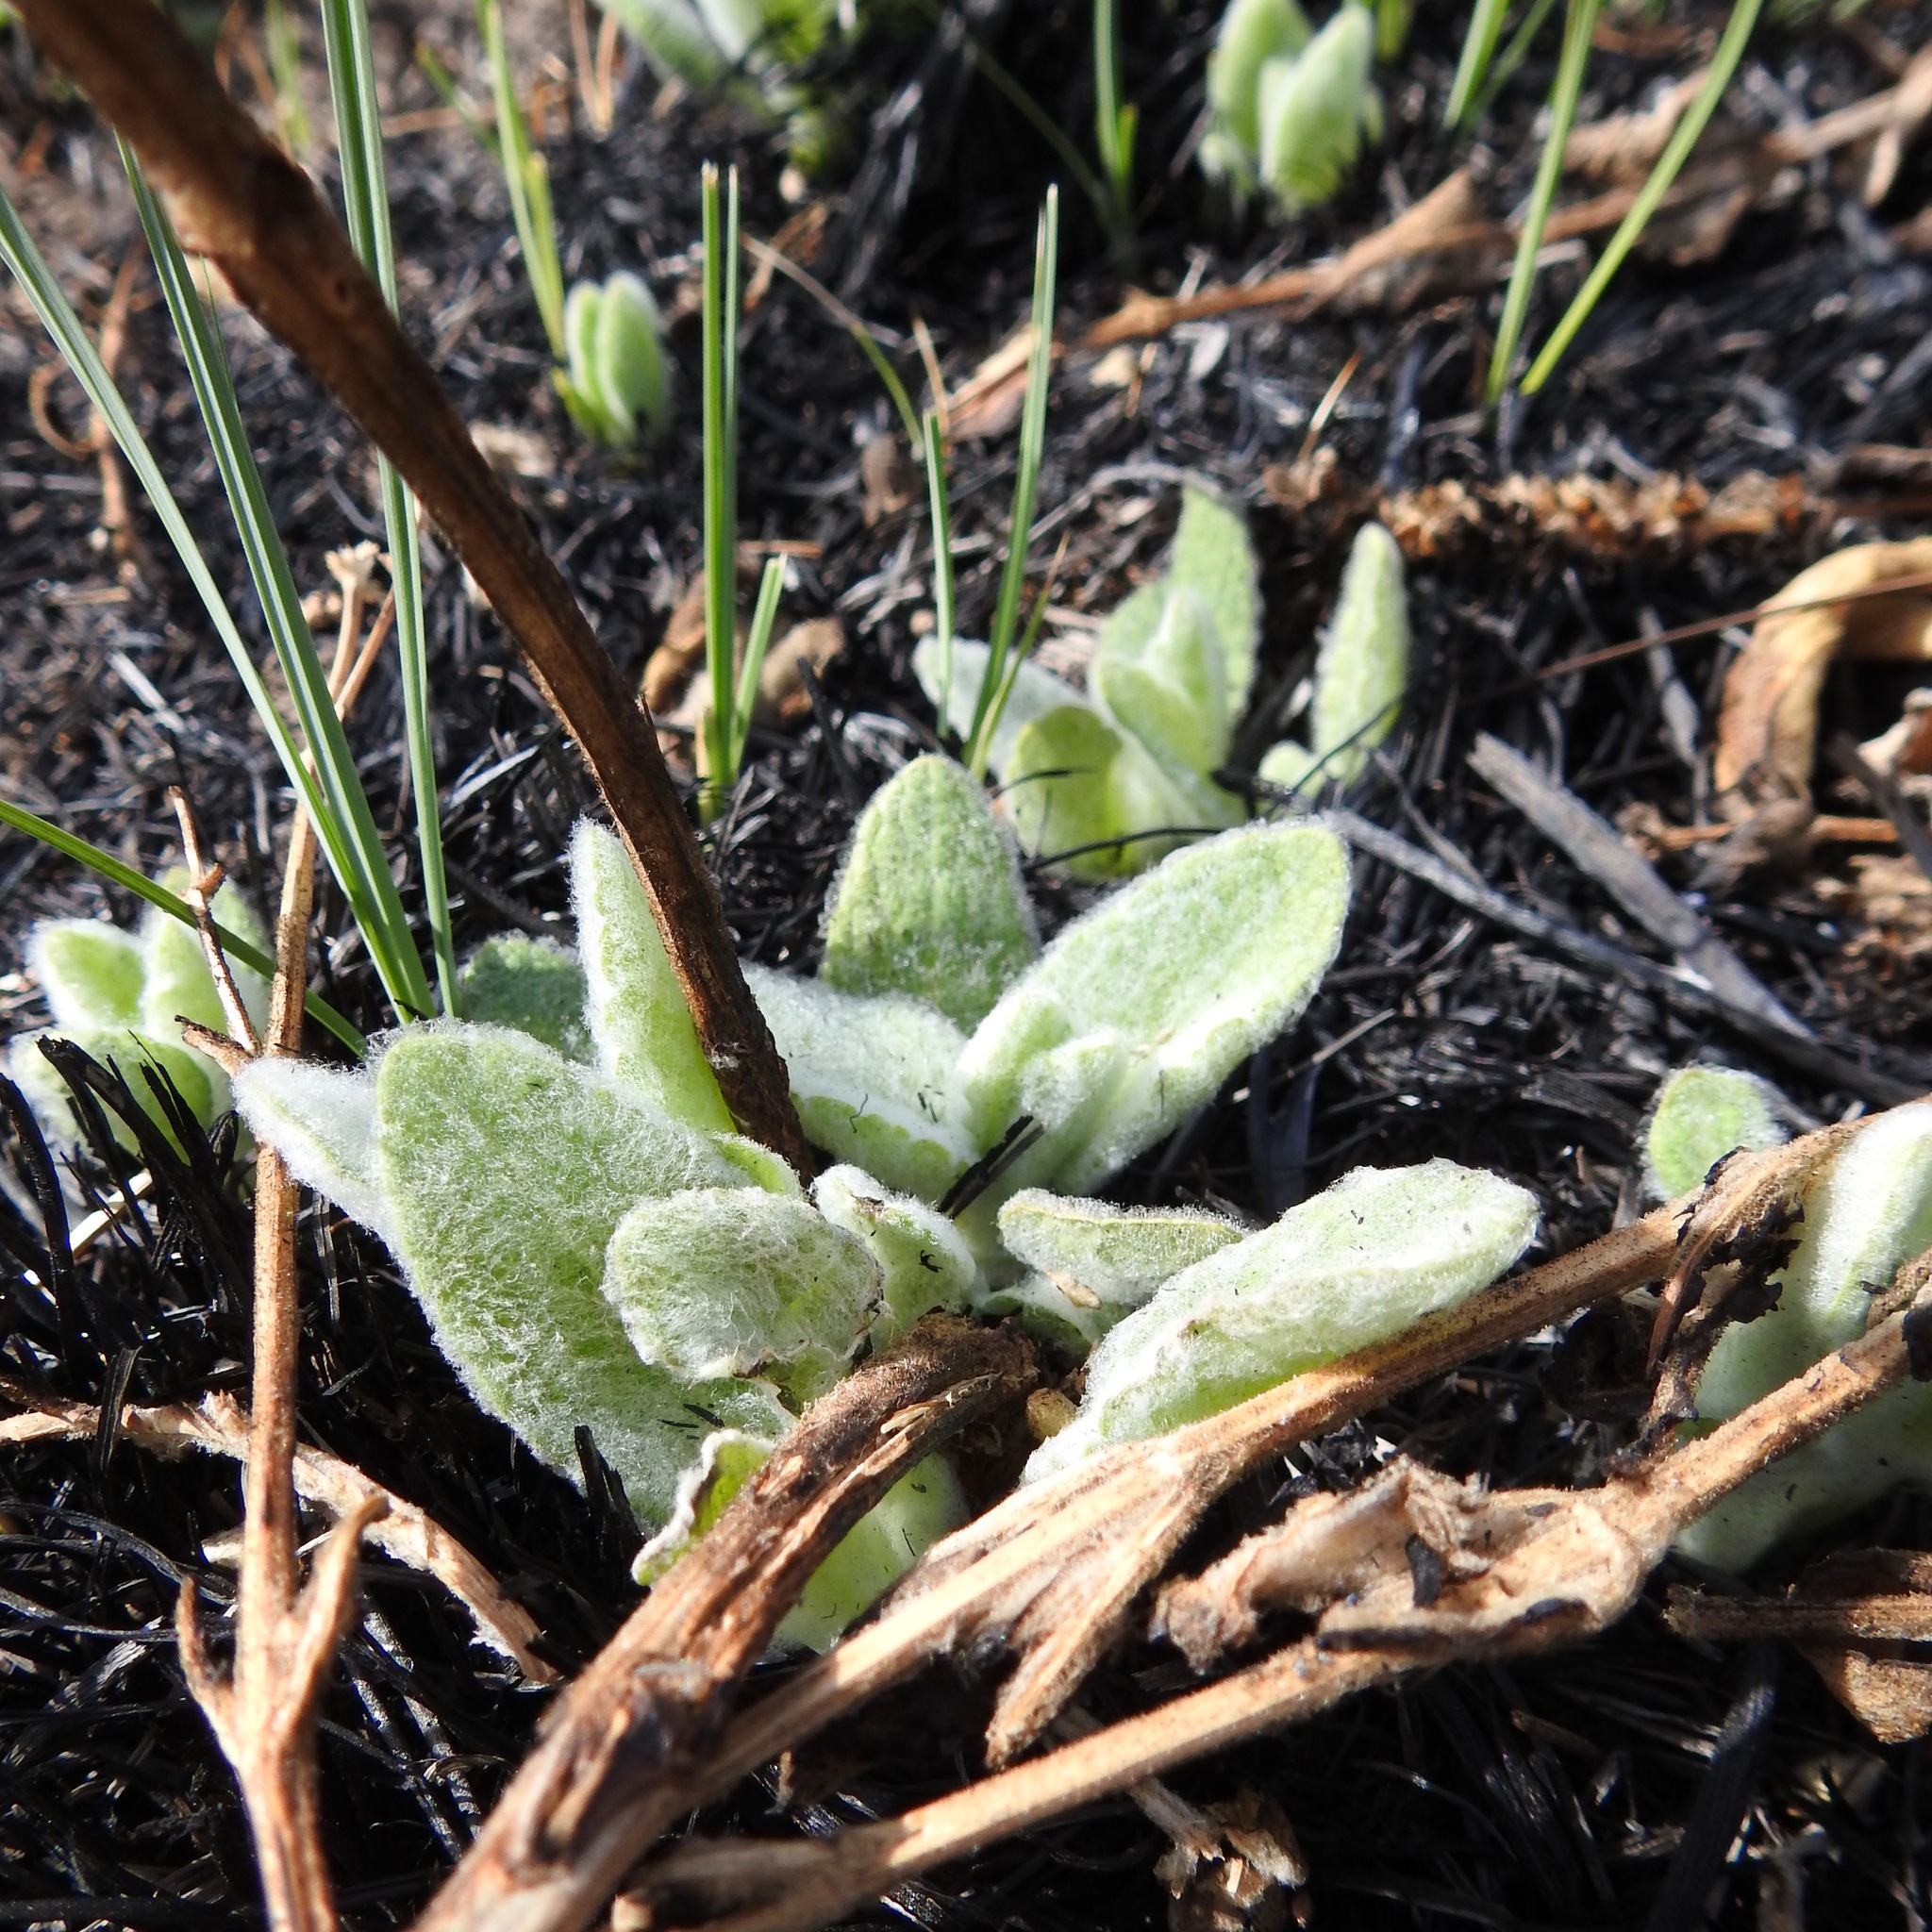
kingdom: Plantae
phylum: Tracheophyta
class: Magnoliopsida
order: Lamiales
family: Lamiaceae
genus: Stachys
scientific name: Stachys albens
